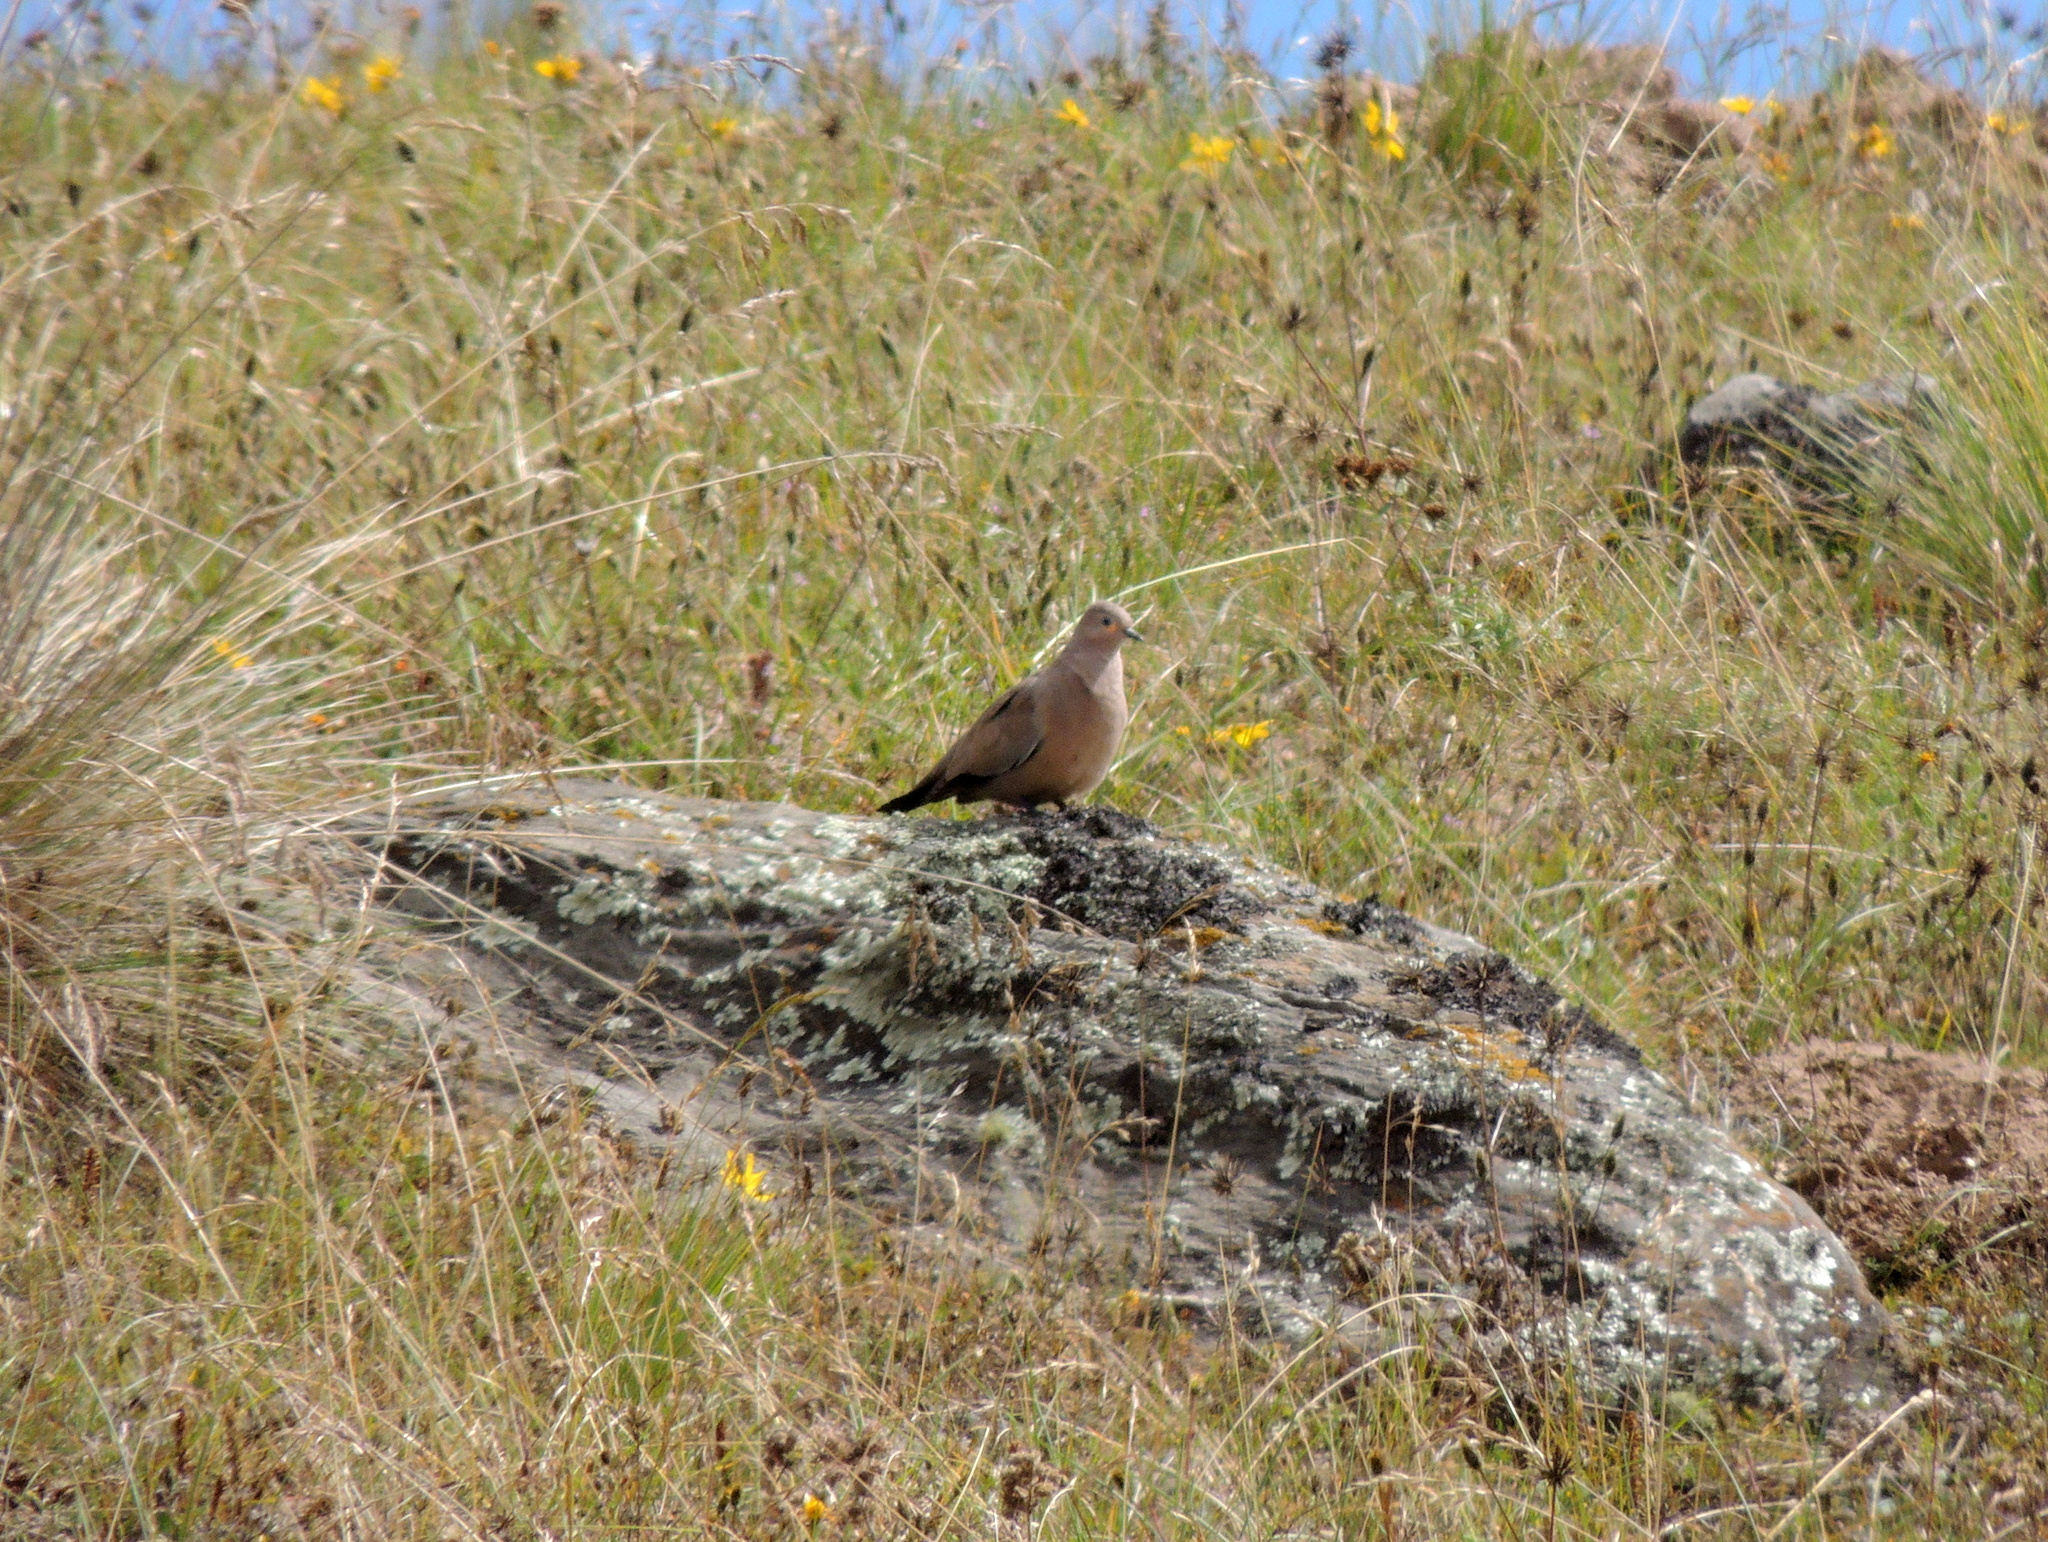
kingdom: Animalia
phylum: Chordata
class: Aves
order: Columbiformes
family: Columbidae
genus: Metriopelia
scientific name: Metriopelia melanoptera
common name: Black-winged ground dove
